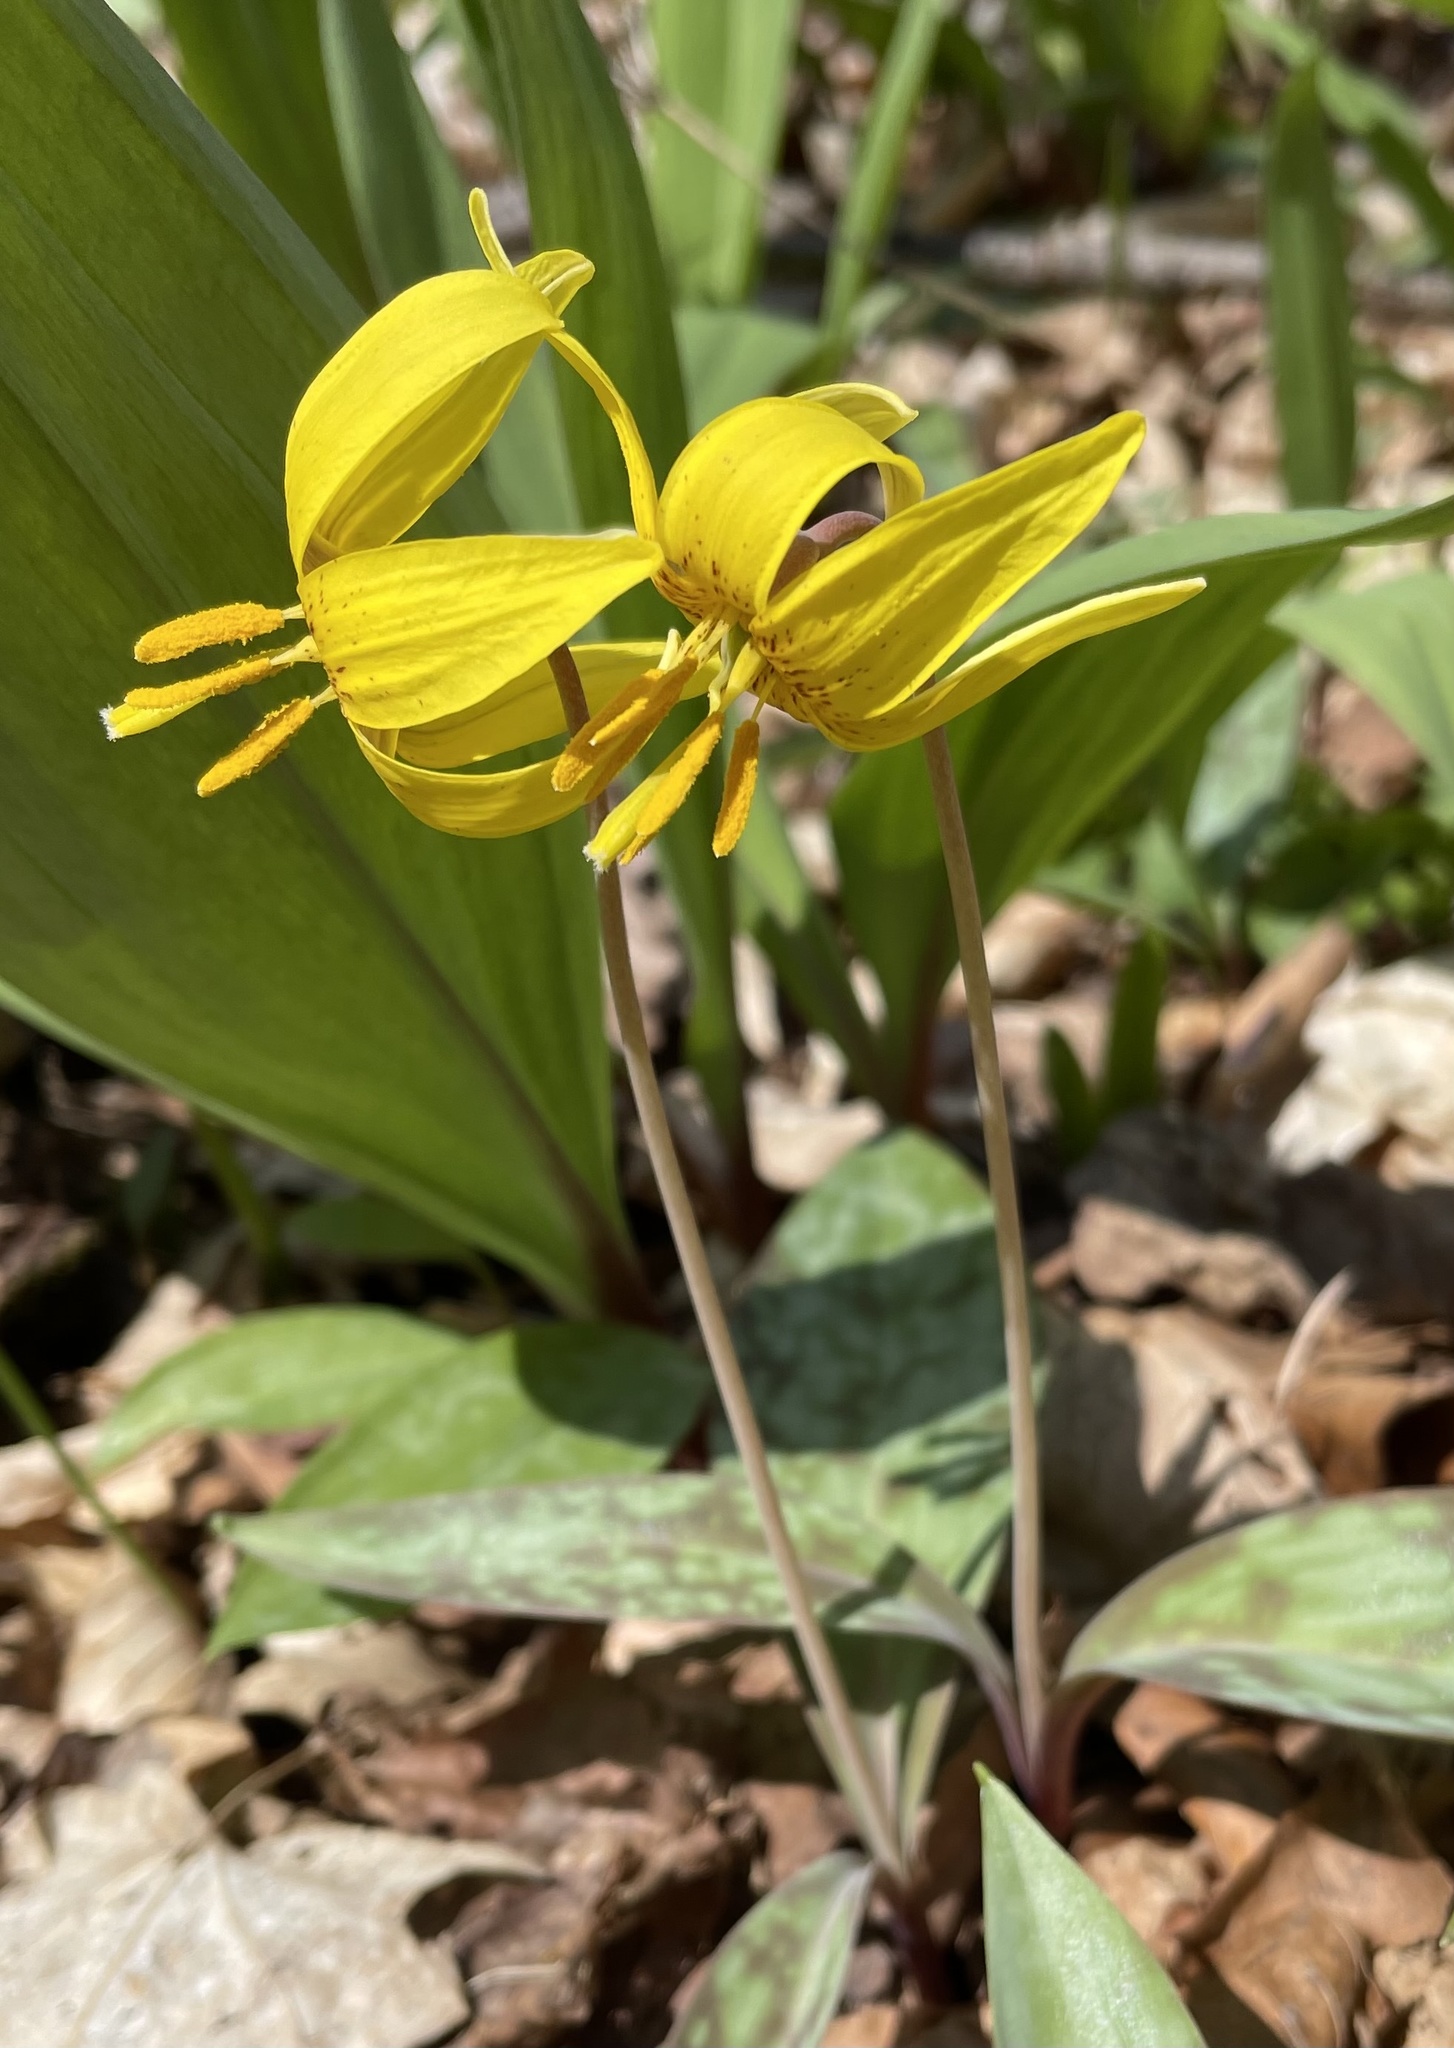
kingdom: Plantae
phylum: Tracheophyta
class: Liliopsida
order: Liliales
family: Liliaceae
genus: Erythronium
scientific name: Erythronium americanum
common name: Yellow adder's-tongue
